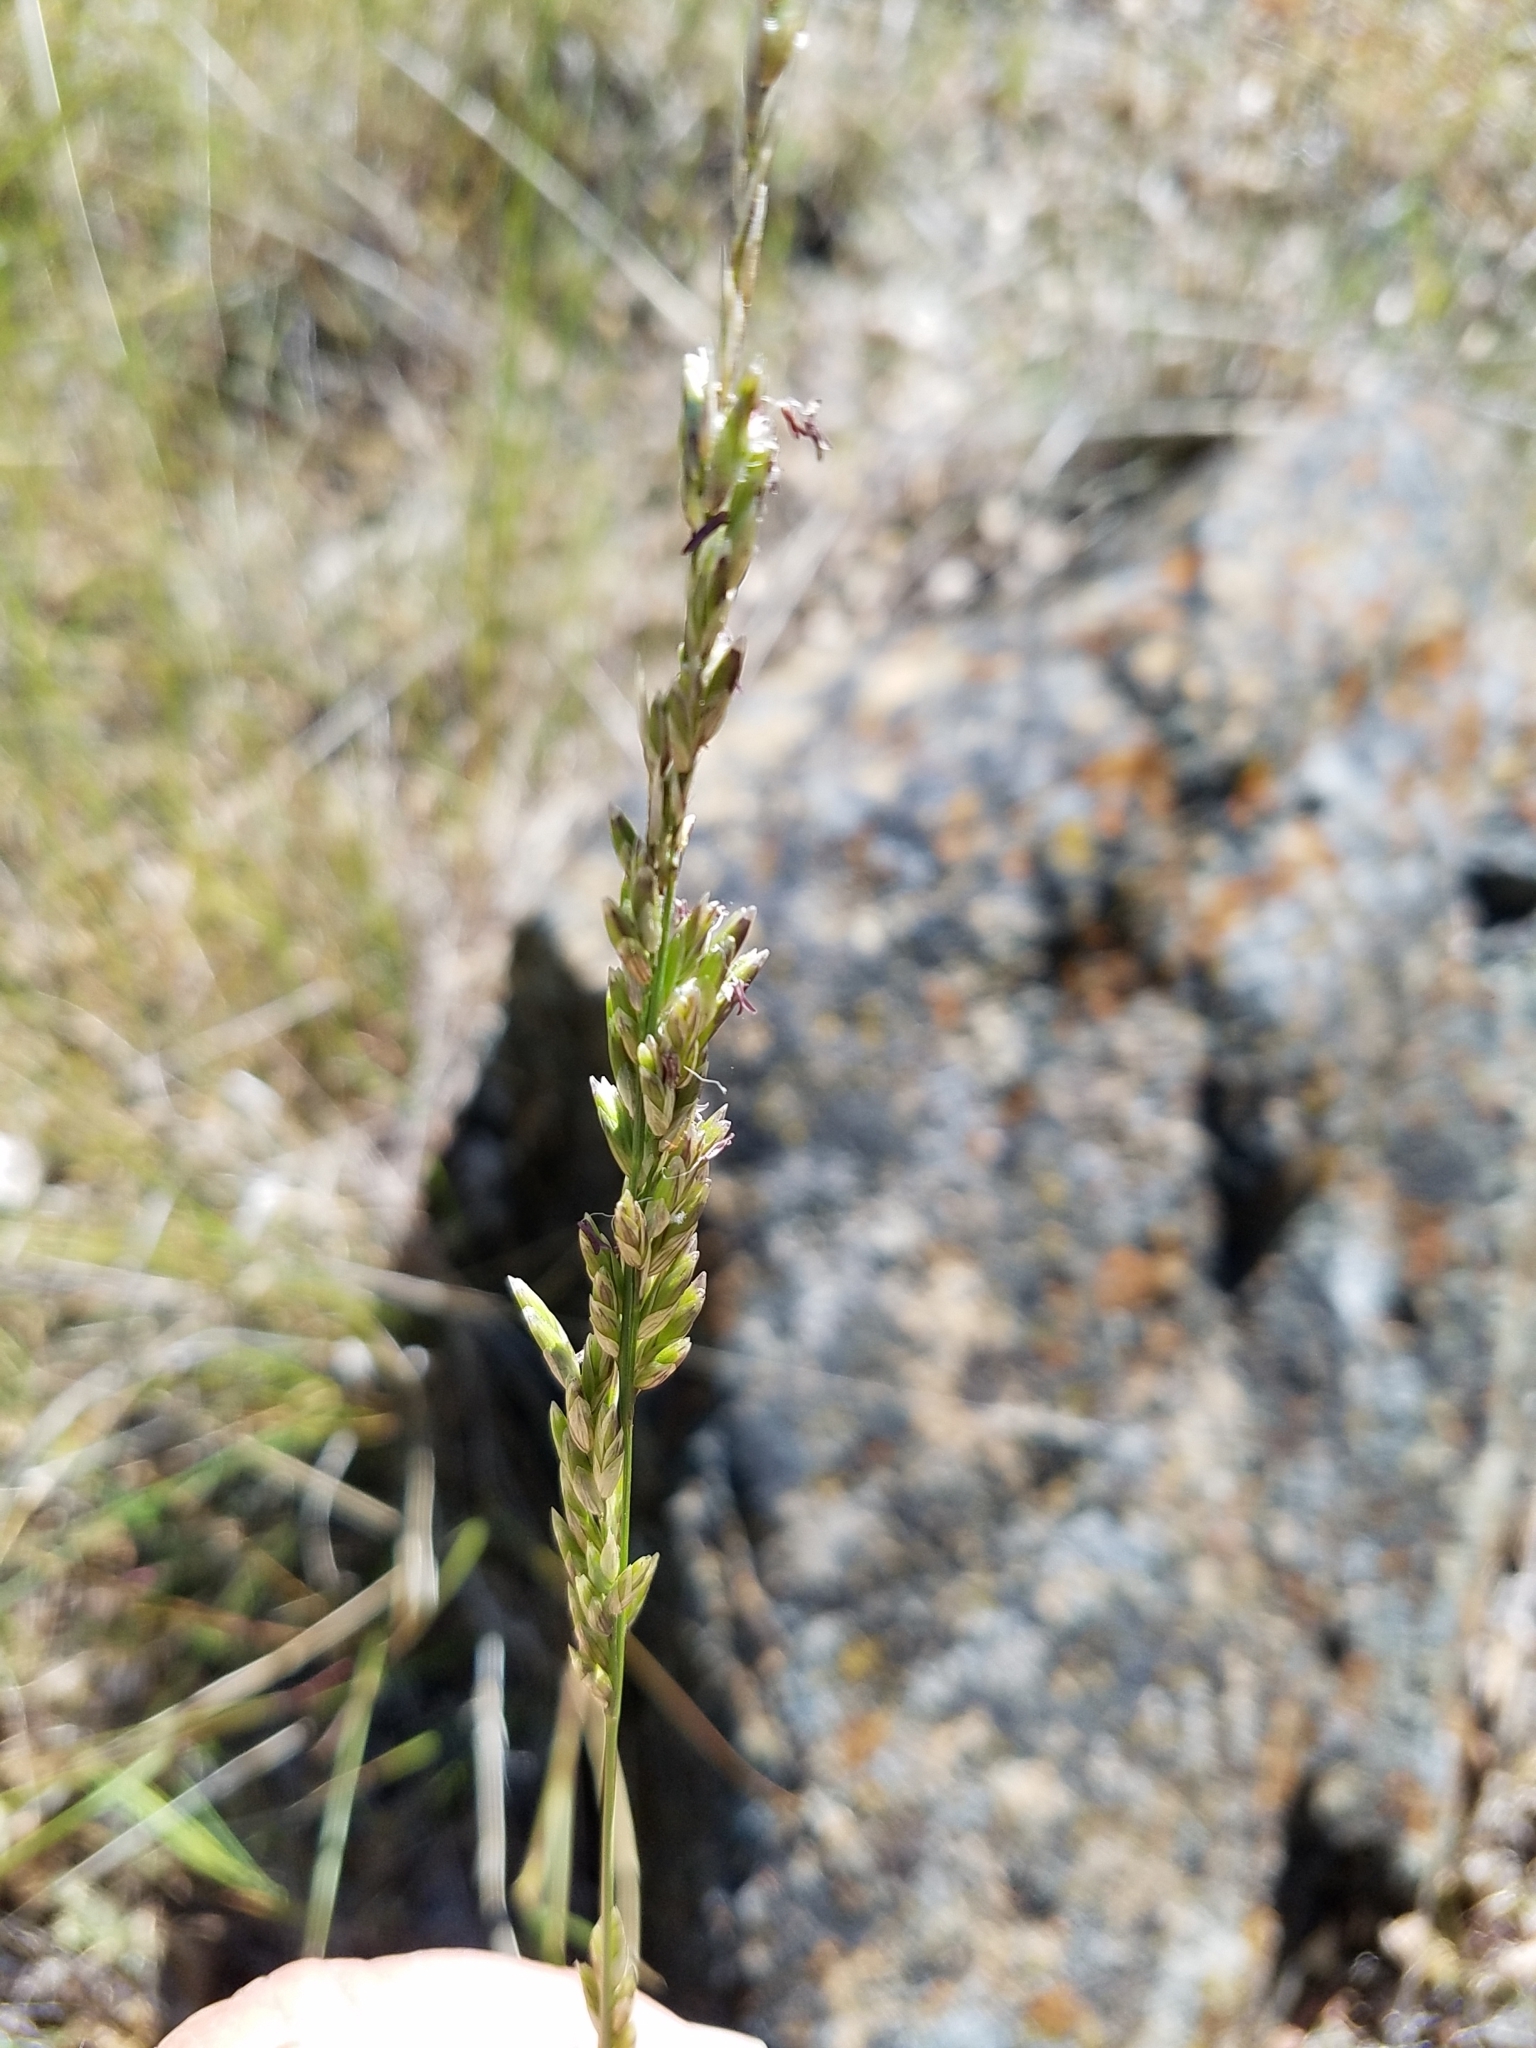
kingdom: Plantae
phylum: Tracheophyta
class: Liliopsida
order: Poales
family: Poaceae
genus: Melica
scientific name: Melica californica
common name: California melic
